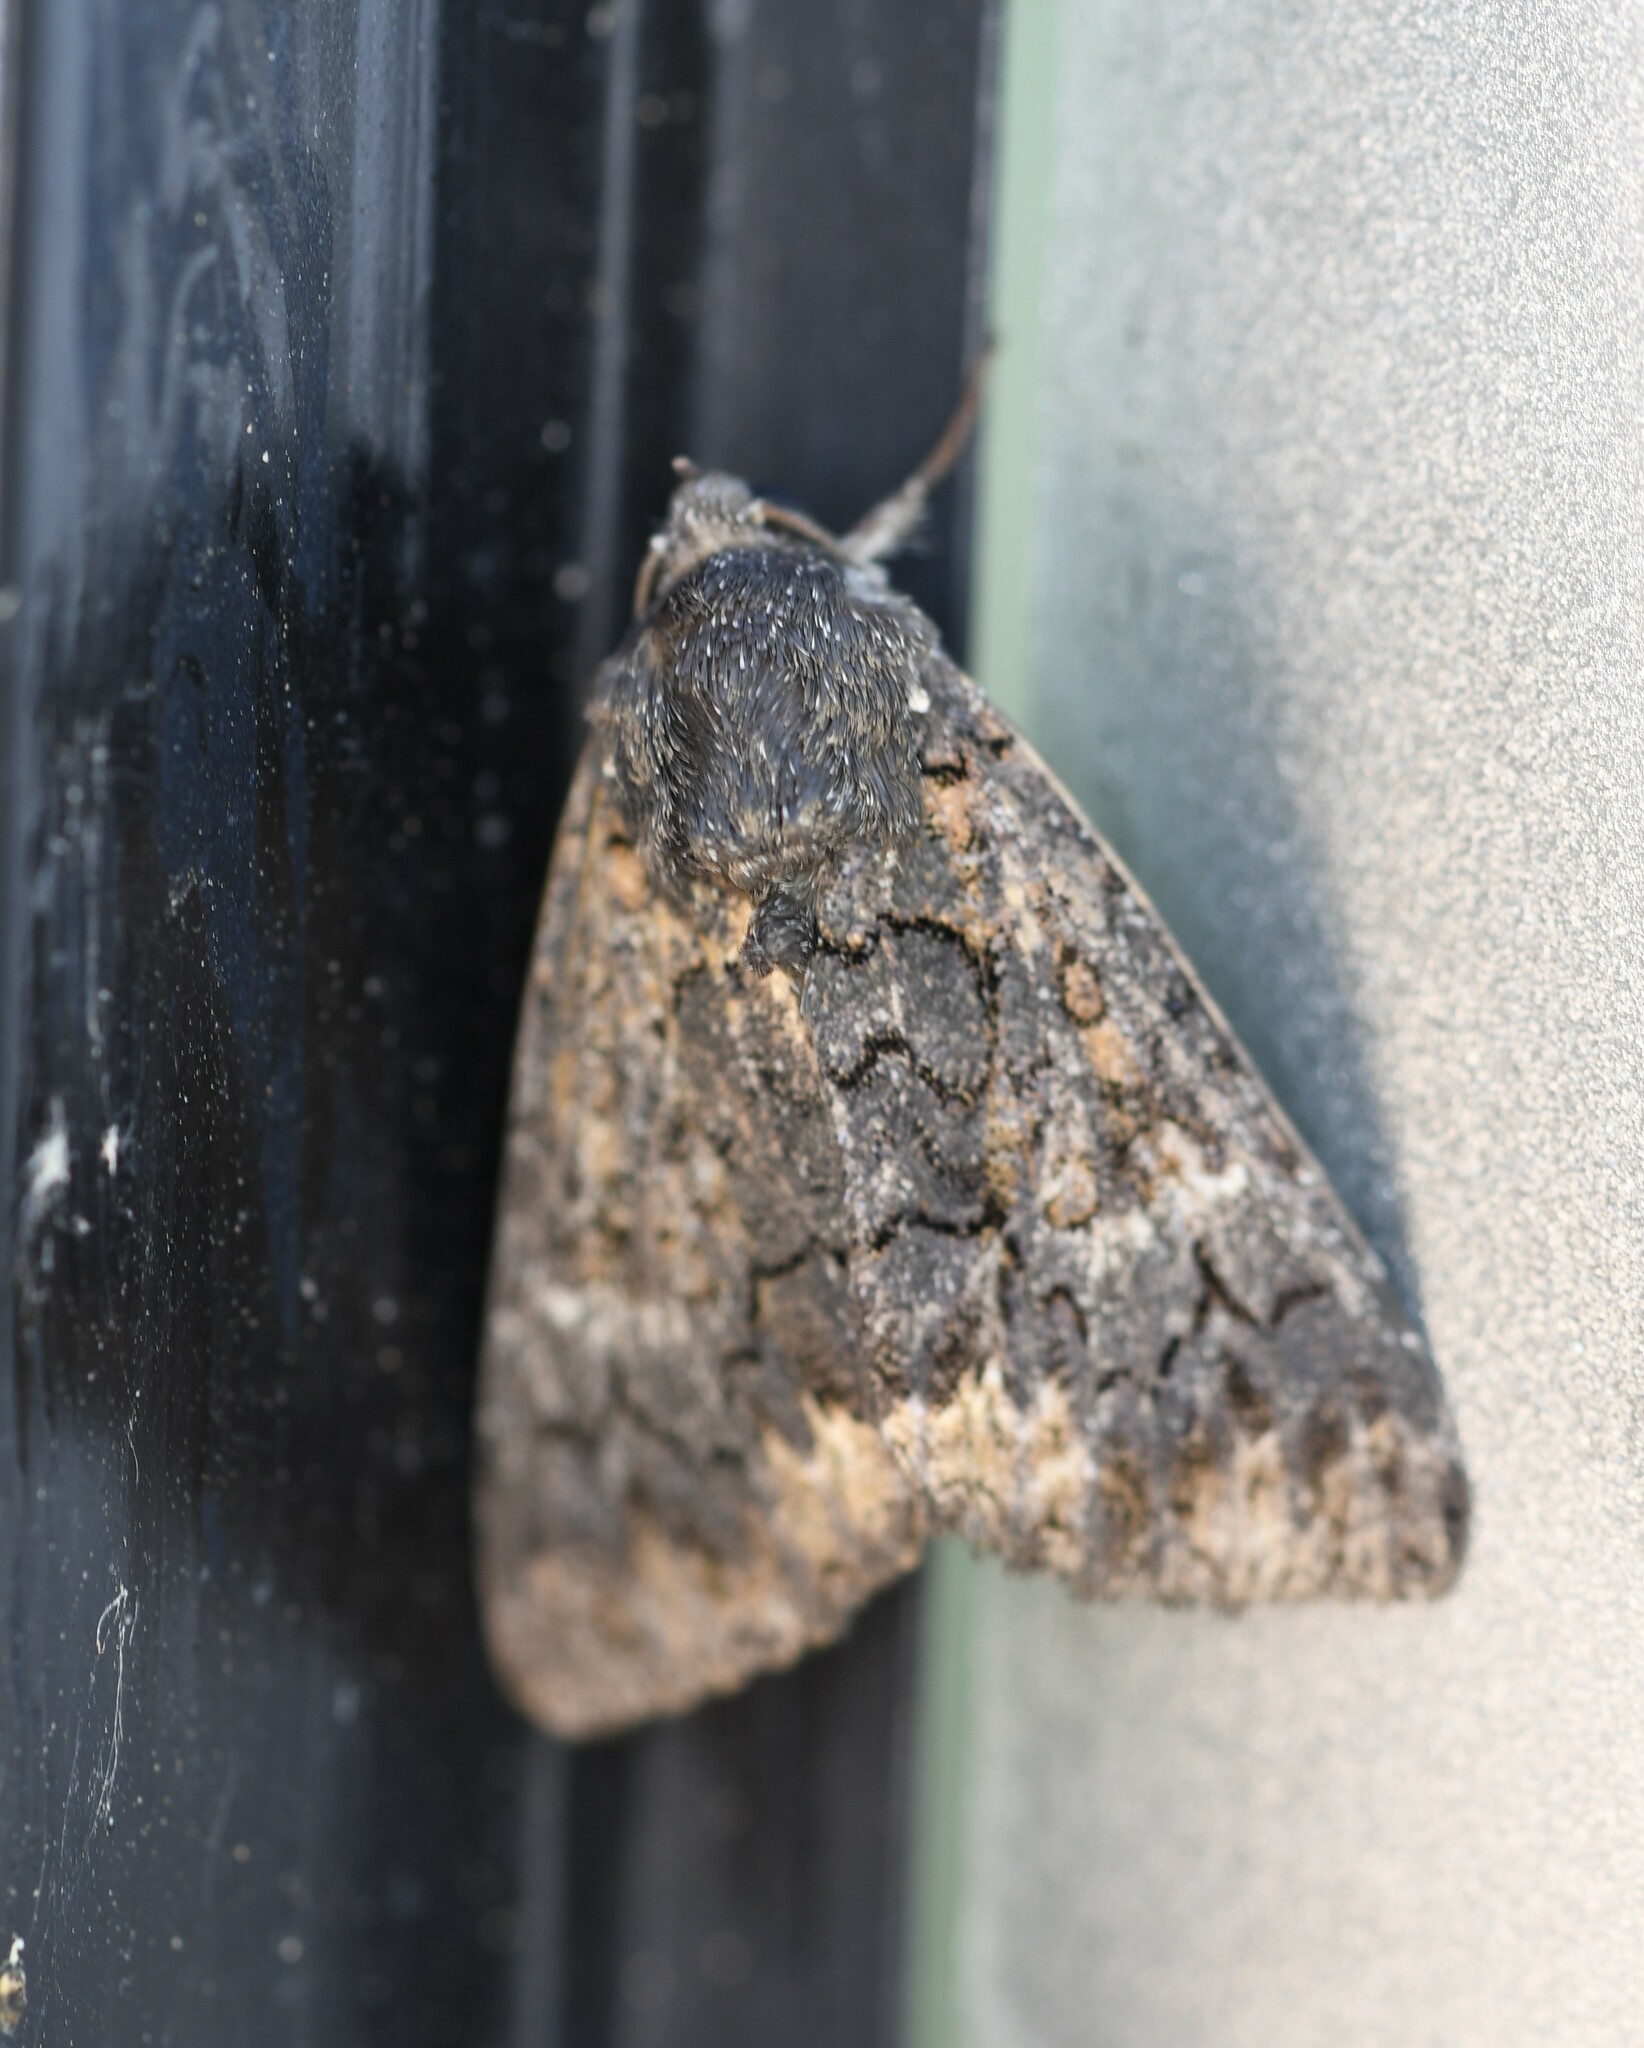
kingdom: Animalia
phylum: Arthropoda
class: Insecta
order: Lepidoptera
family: Erebidae
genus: Catephia
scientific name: Catephia alchymista
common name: Alchymist
